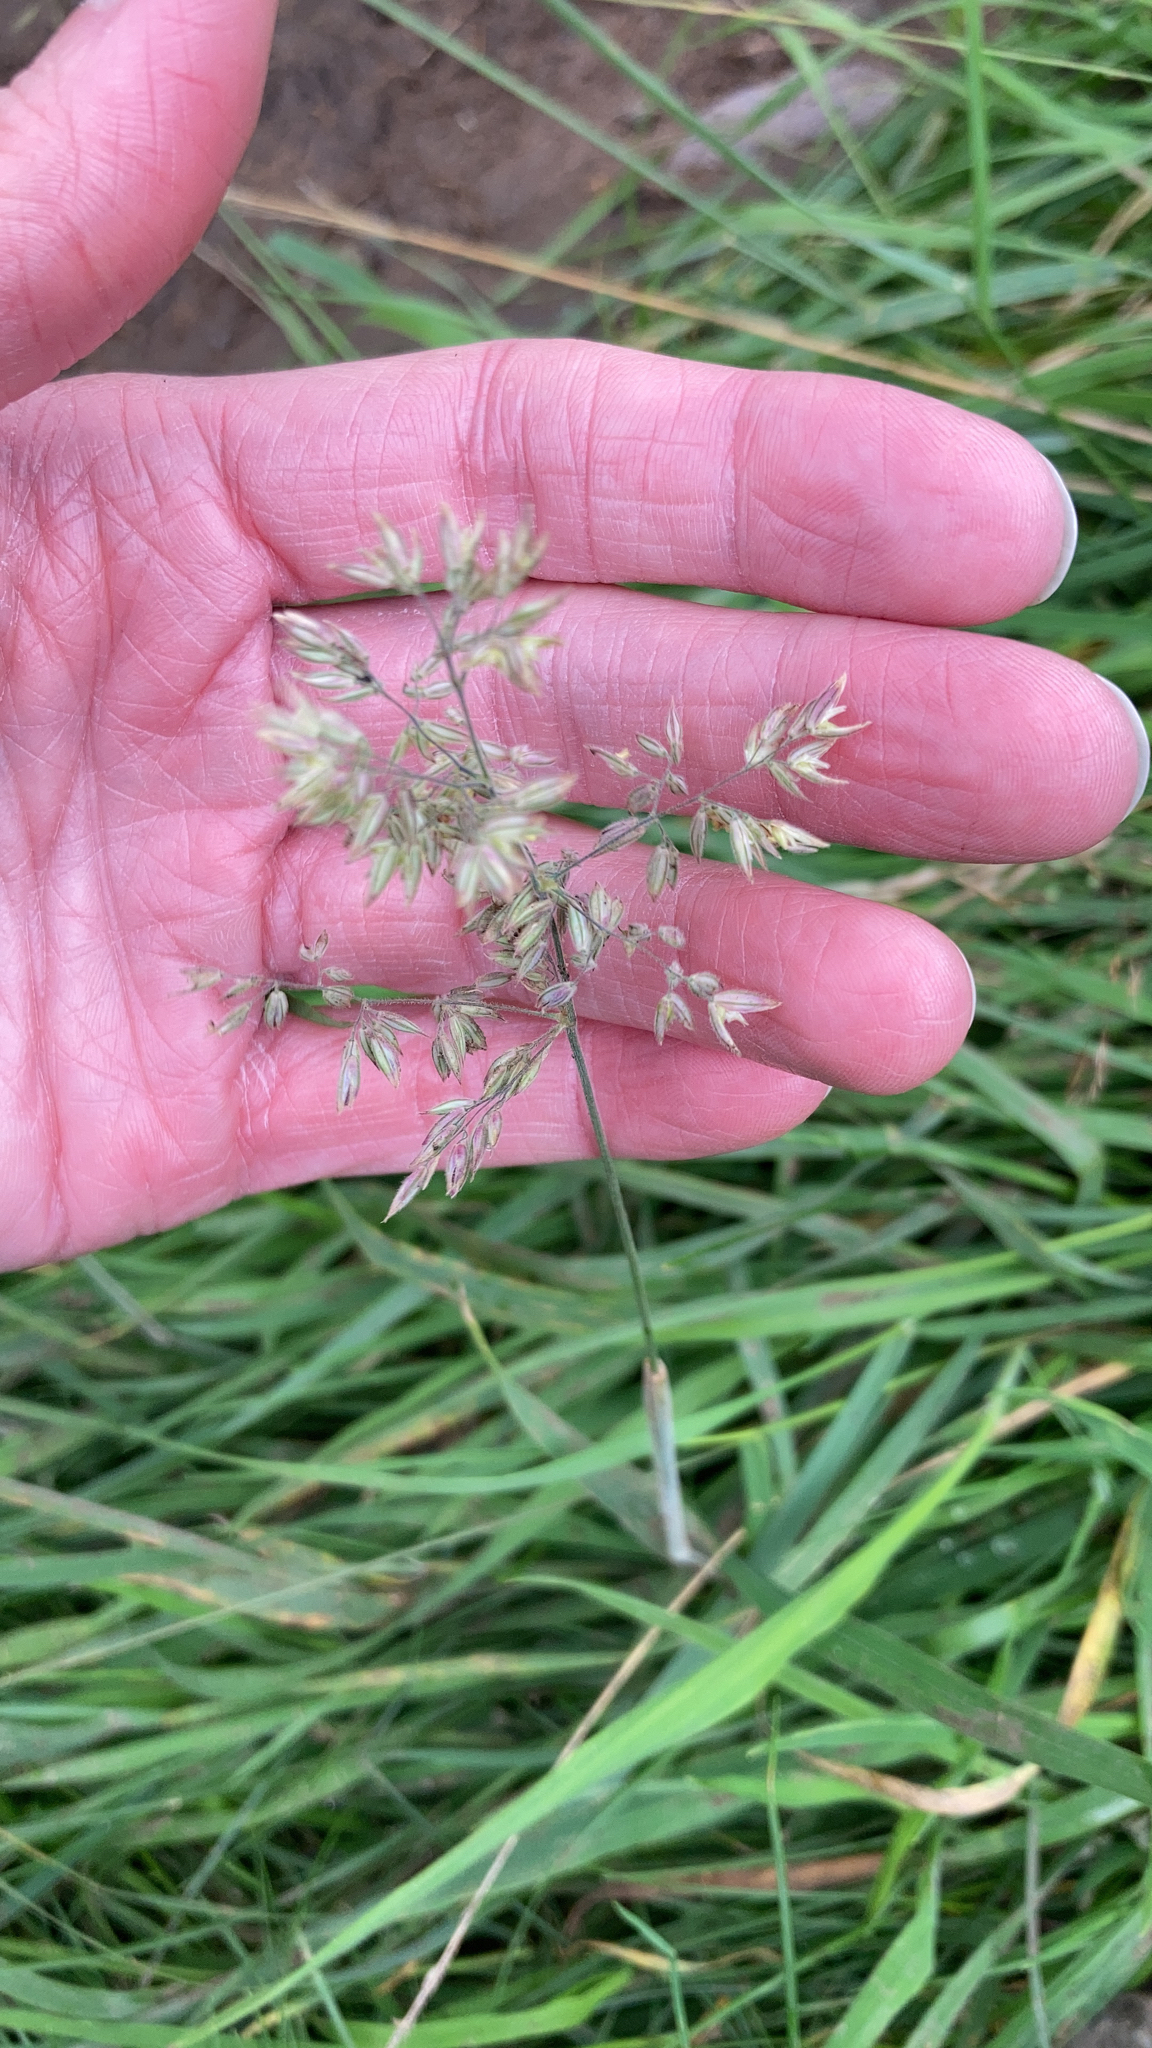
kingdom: Plantae
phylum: Tracheophyta
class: Liliopsida
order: Poales
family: Poaceae
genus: Holcus
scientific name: Holcus lanatus
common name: Yorkshire-fog
